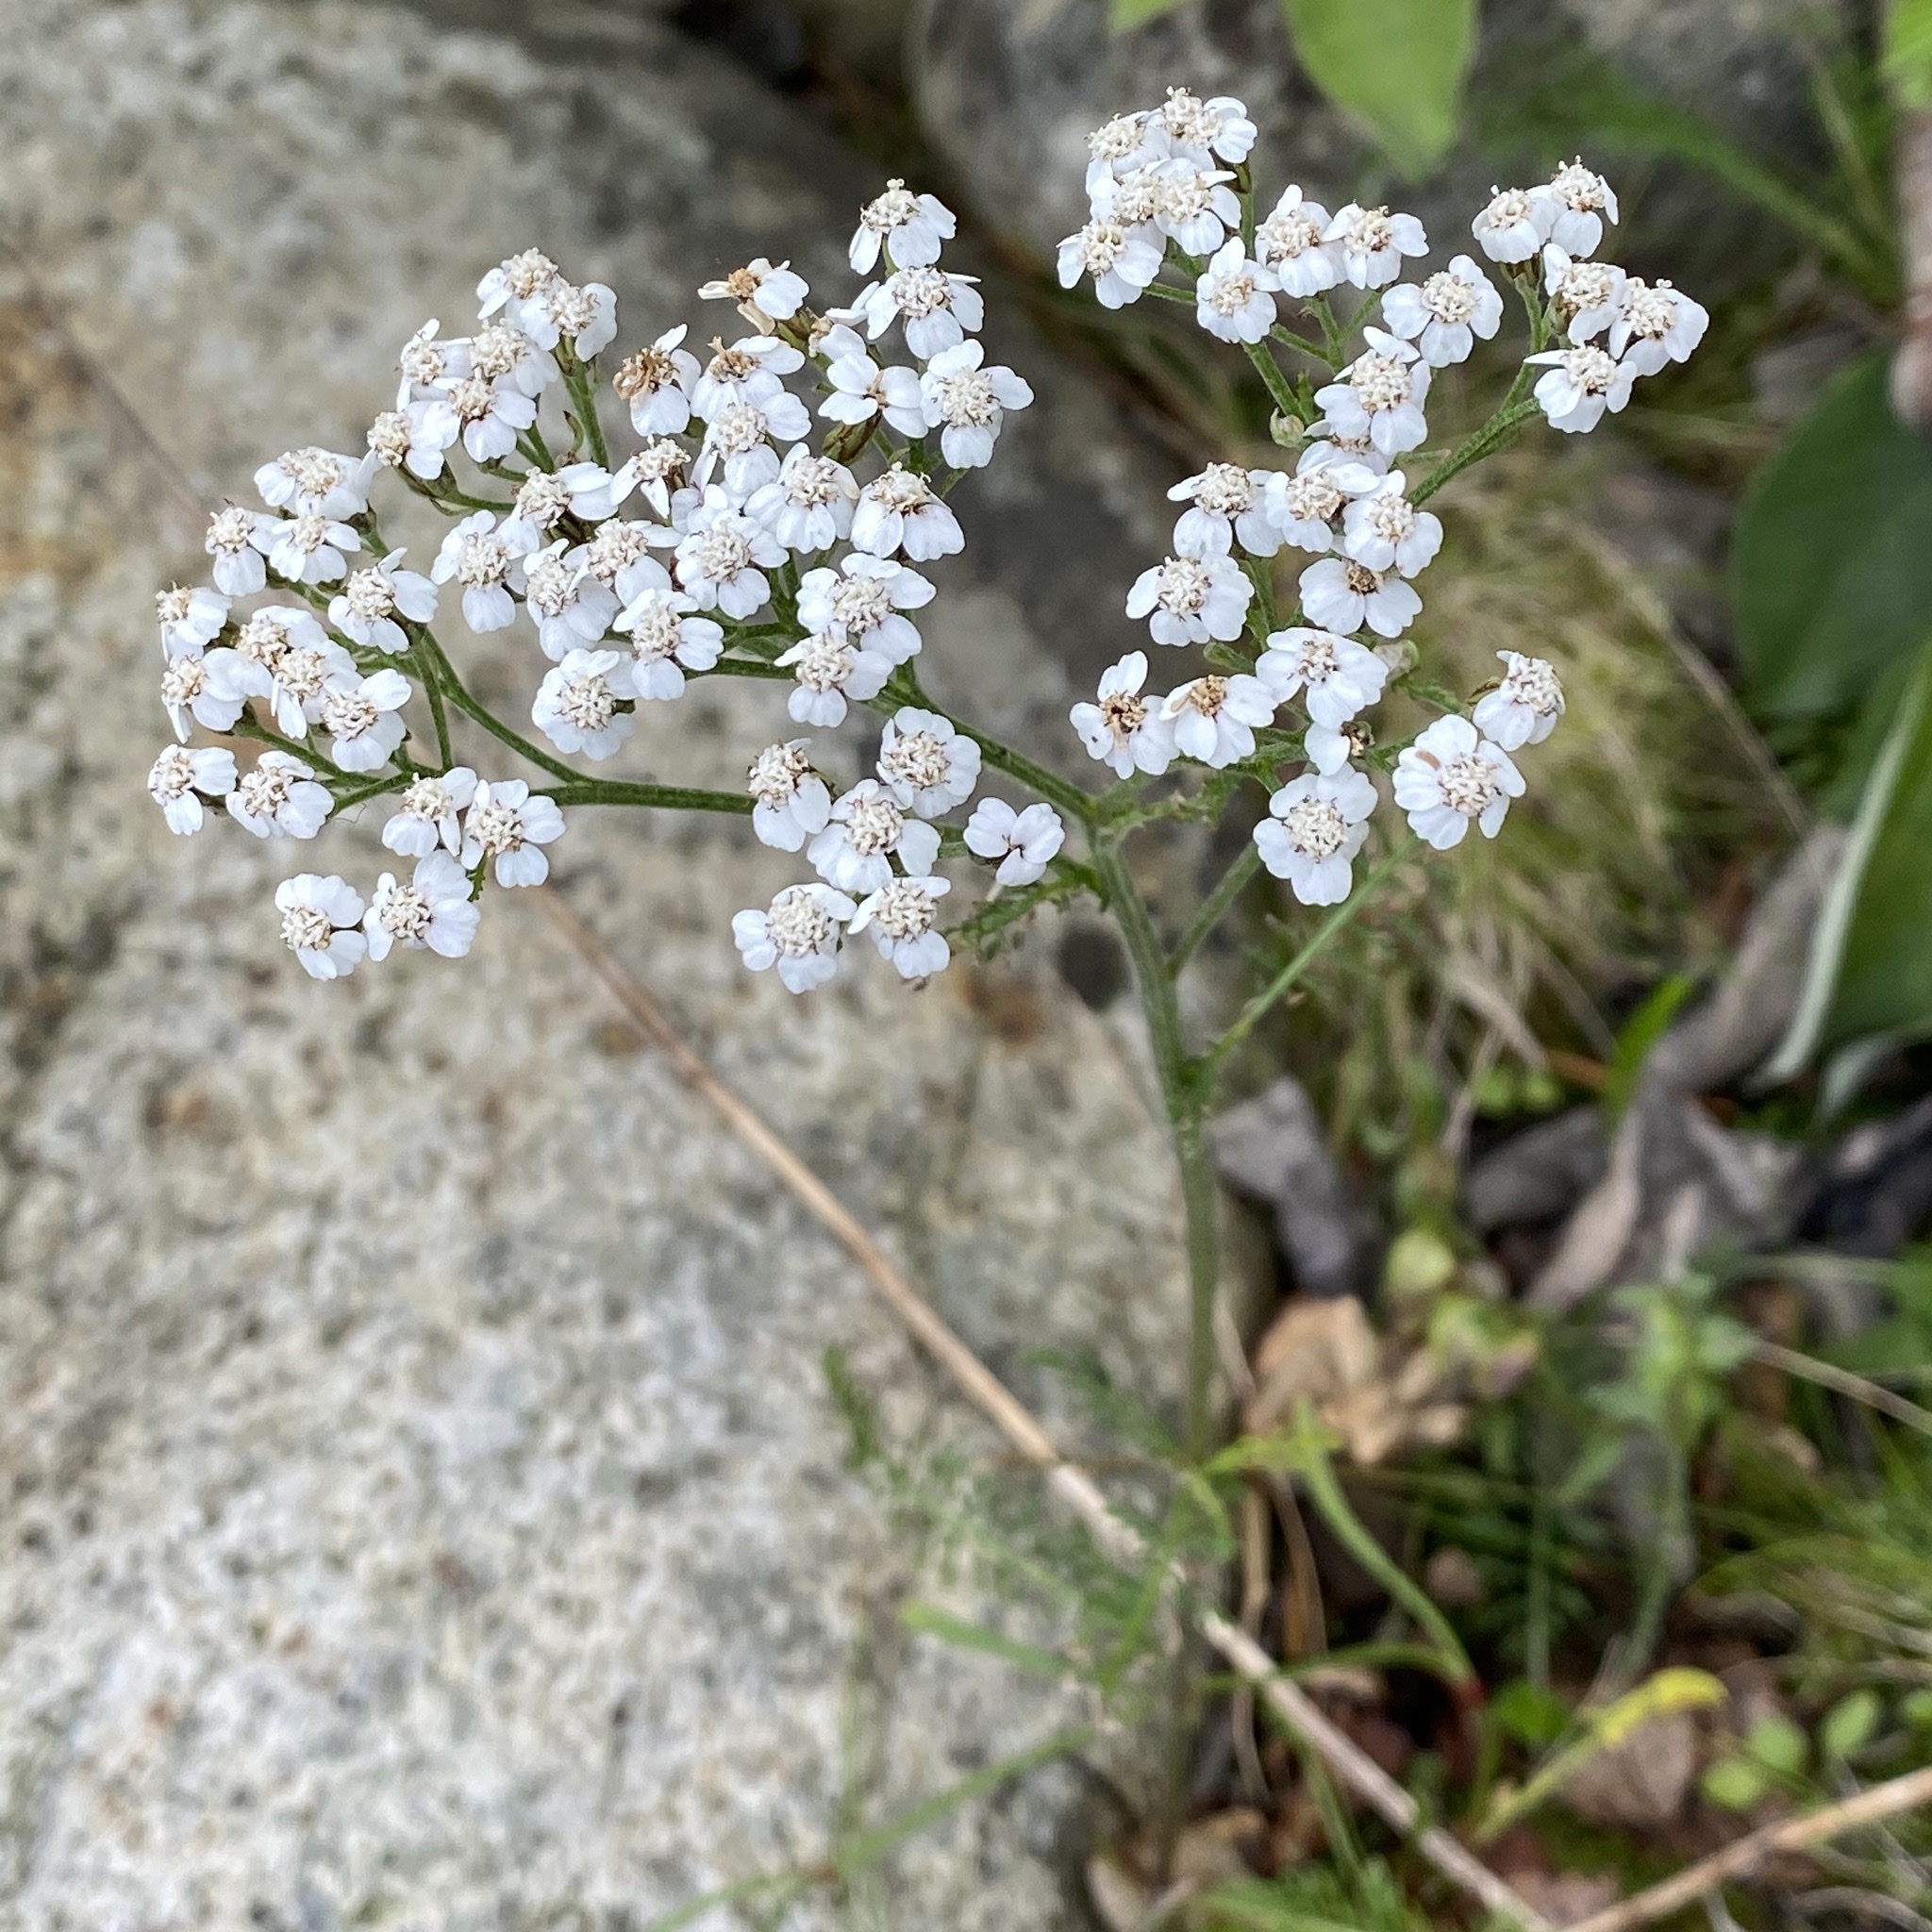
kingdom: Plantae
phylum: Tracheophyta
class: Magnoliopsida
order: Asterales
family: Asteraceae
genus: Achillea
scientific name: Achillea millefolium
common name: Yarrow
